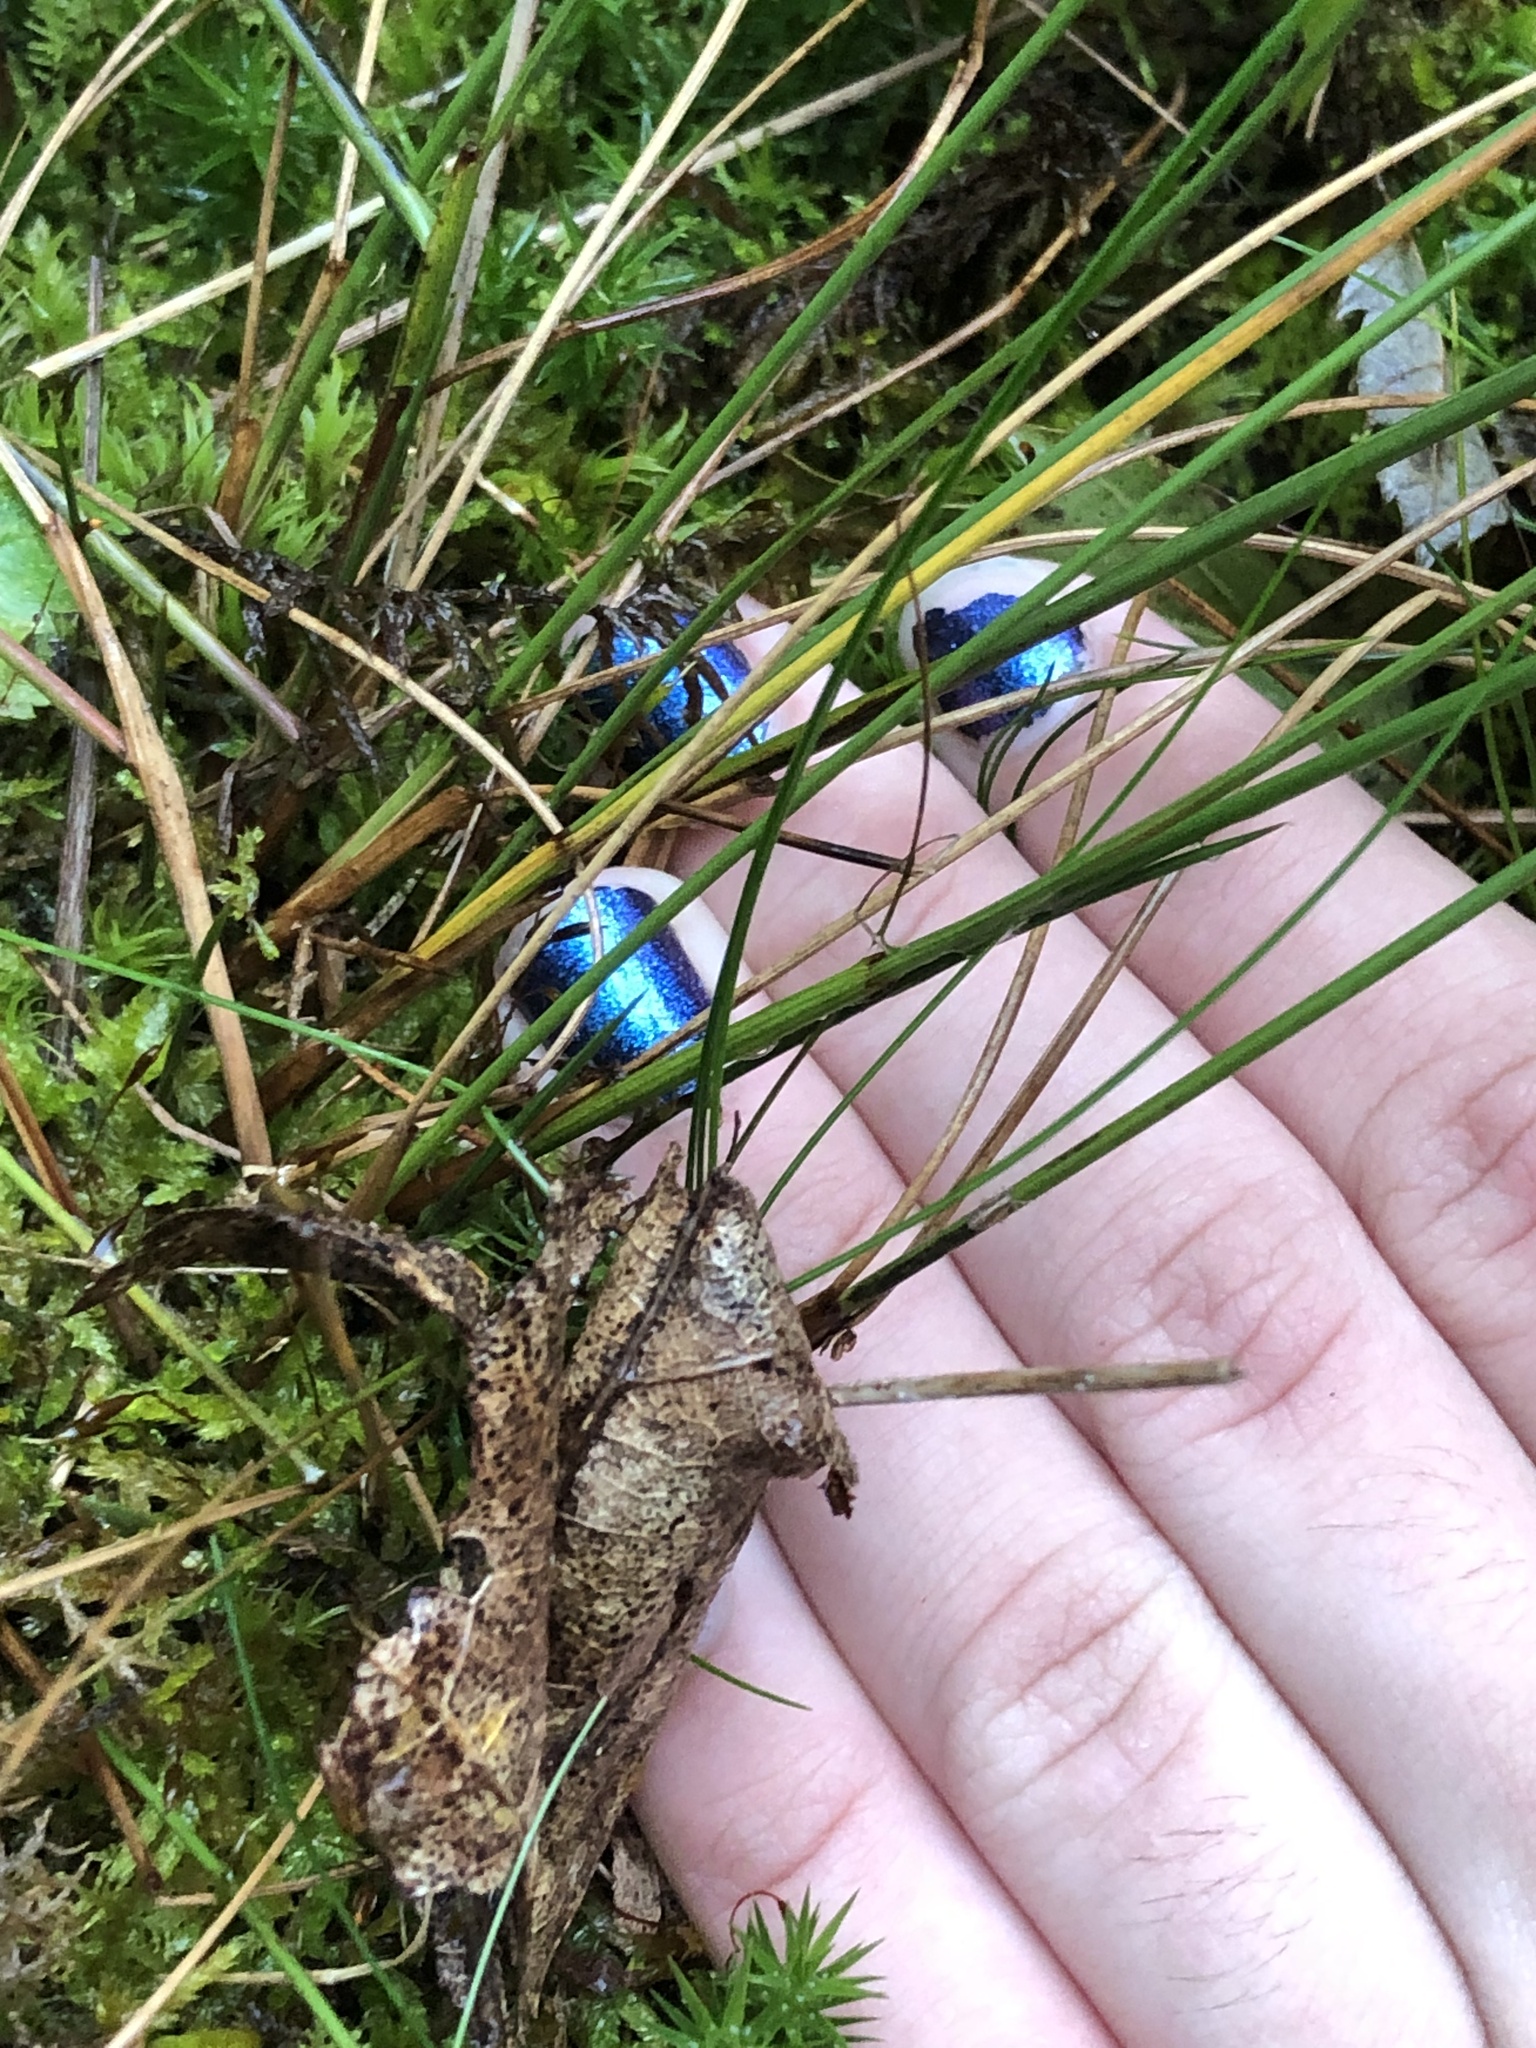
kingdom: Plantae
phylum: Tracheophyta
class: Liliopsida
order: Poales
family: Juncaceae
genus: Juncus
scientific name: Juncus greenei
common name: Greene's rush
